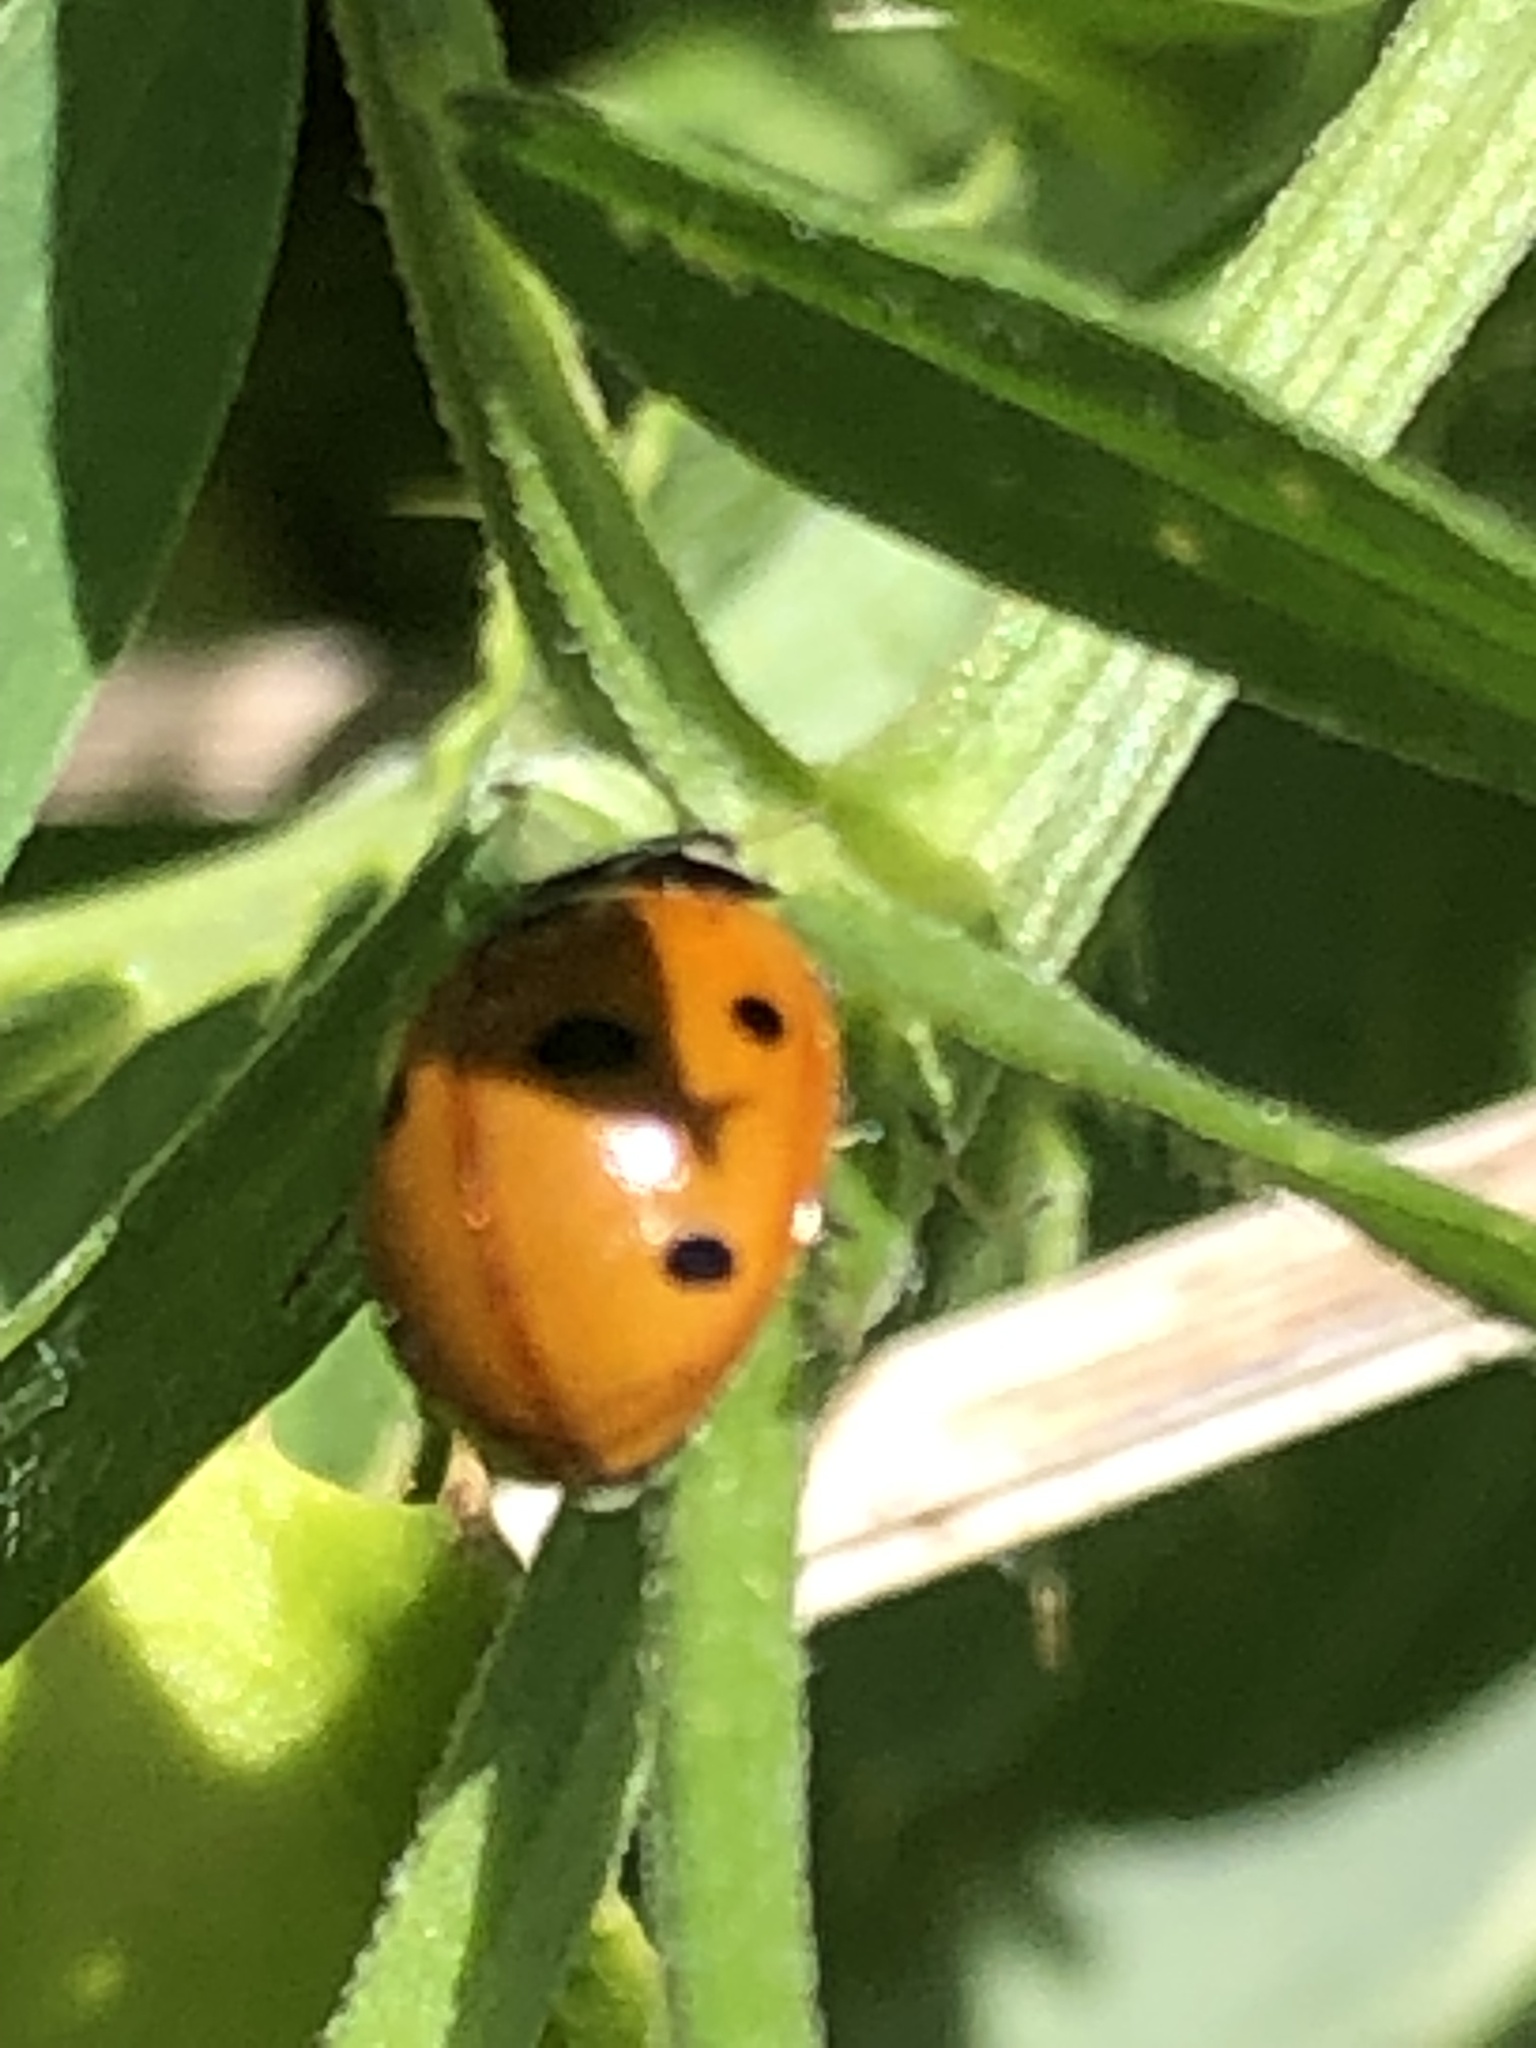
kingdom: Animalia
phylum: Arthropoda
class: Insecta
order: Coleoptera
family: Coccinellidae
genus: Coccinella
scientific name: Coccinella septempunctata
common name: Sevenspotted lady beetle
